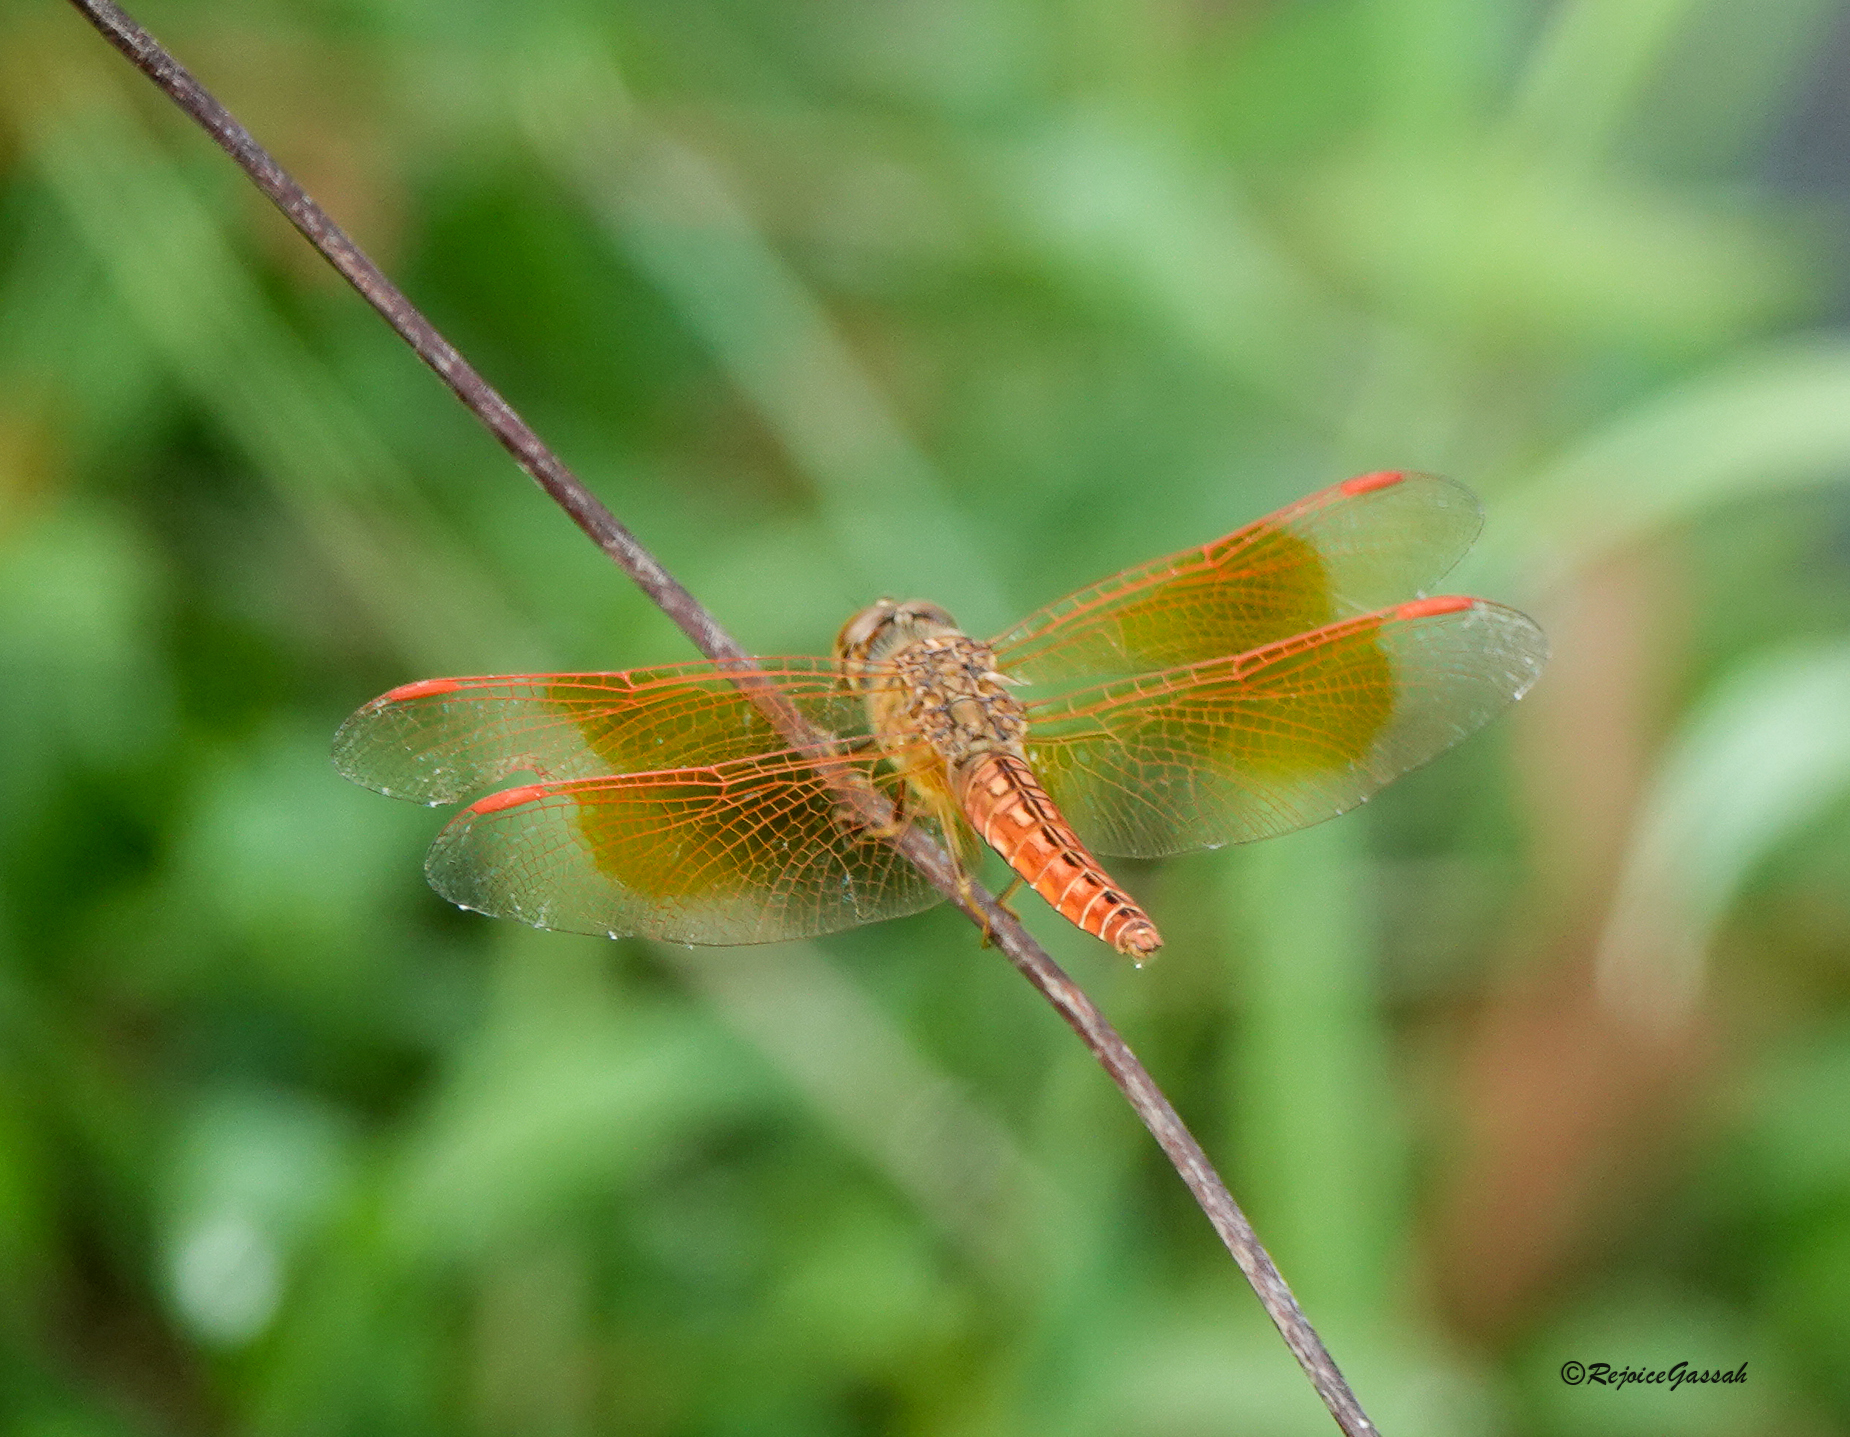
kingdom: Animalia
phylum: Arthropoda
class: Insecta
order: Odonata
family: Libellulidae
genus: Brachythemis
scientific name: Brachythemis contaminata
